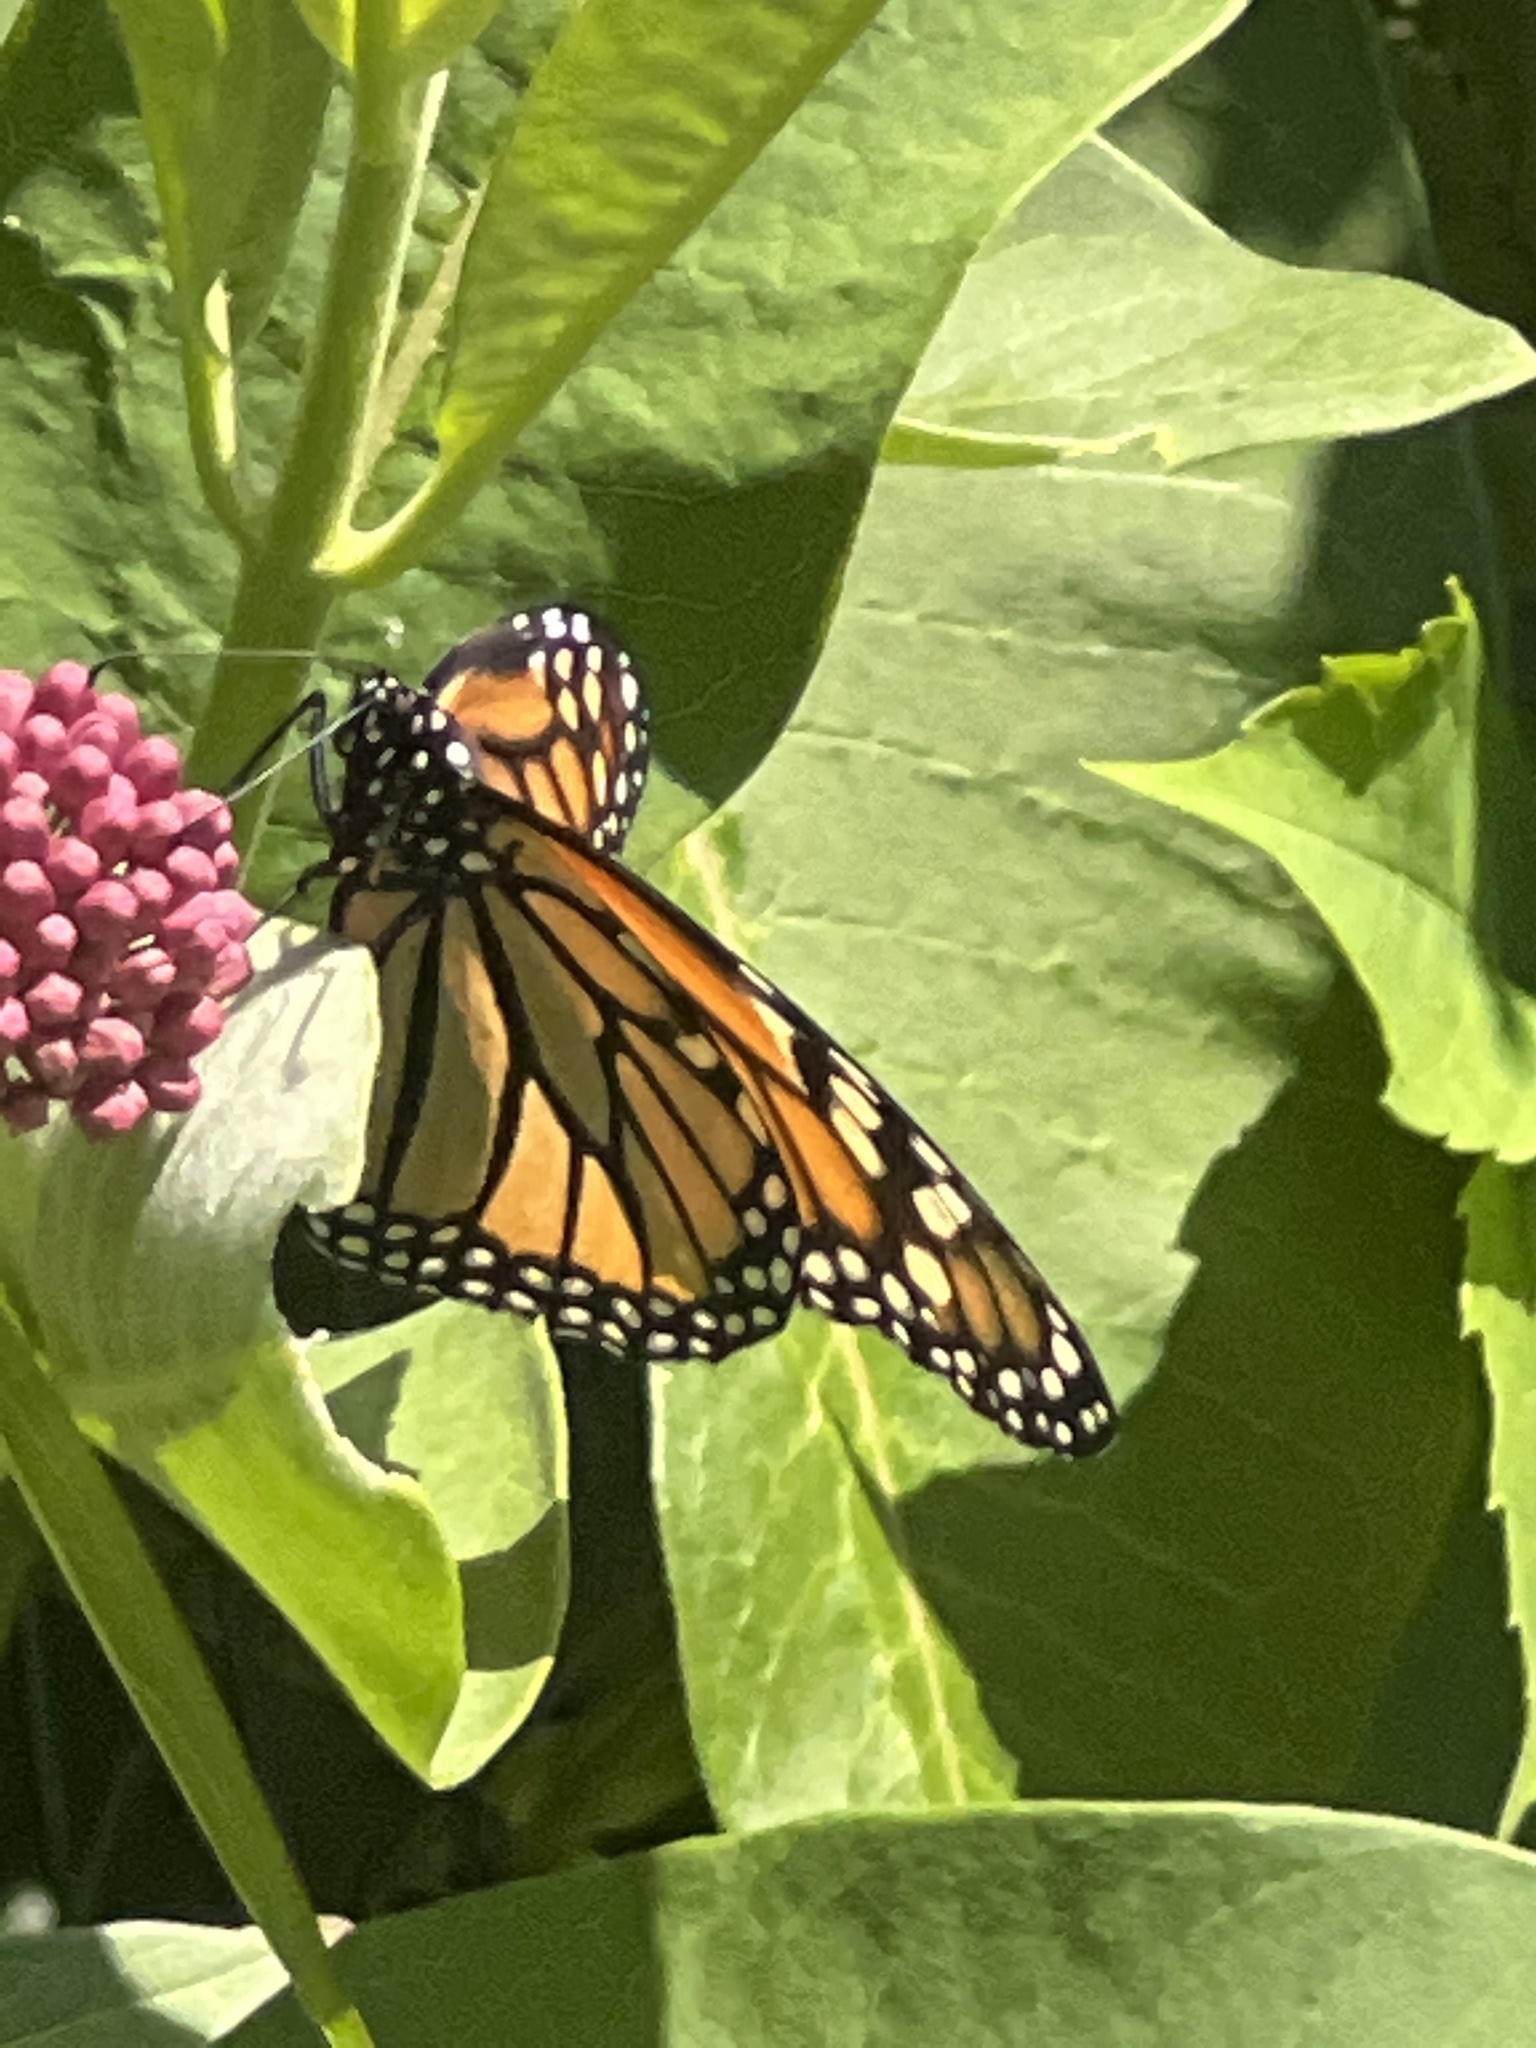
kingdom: Animalia
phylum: Arthropoda
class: Insecta
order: Lepidoptera
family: Nymphalidae
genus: Danaus
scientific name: Danaus plexippus
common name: Monarch
